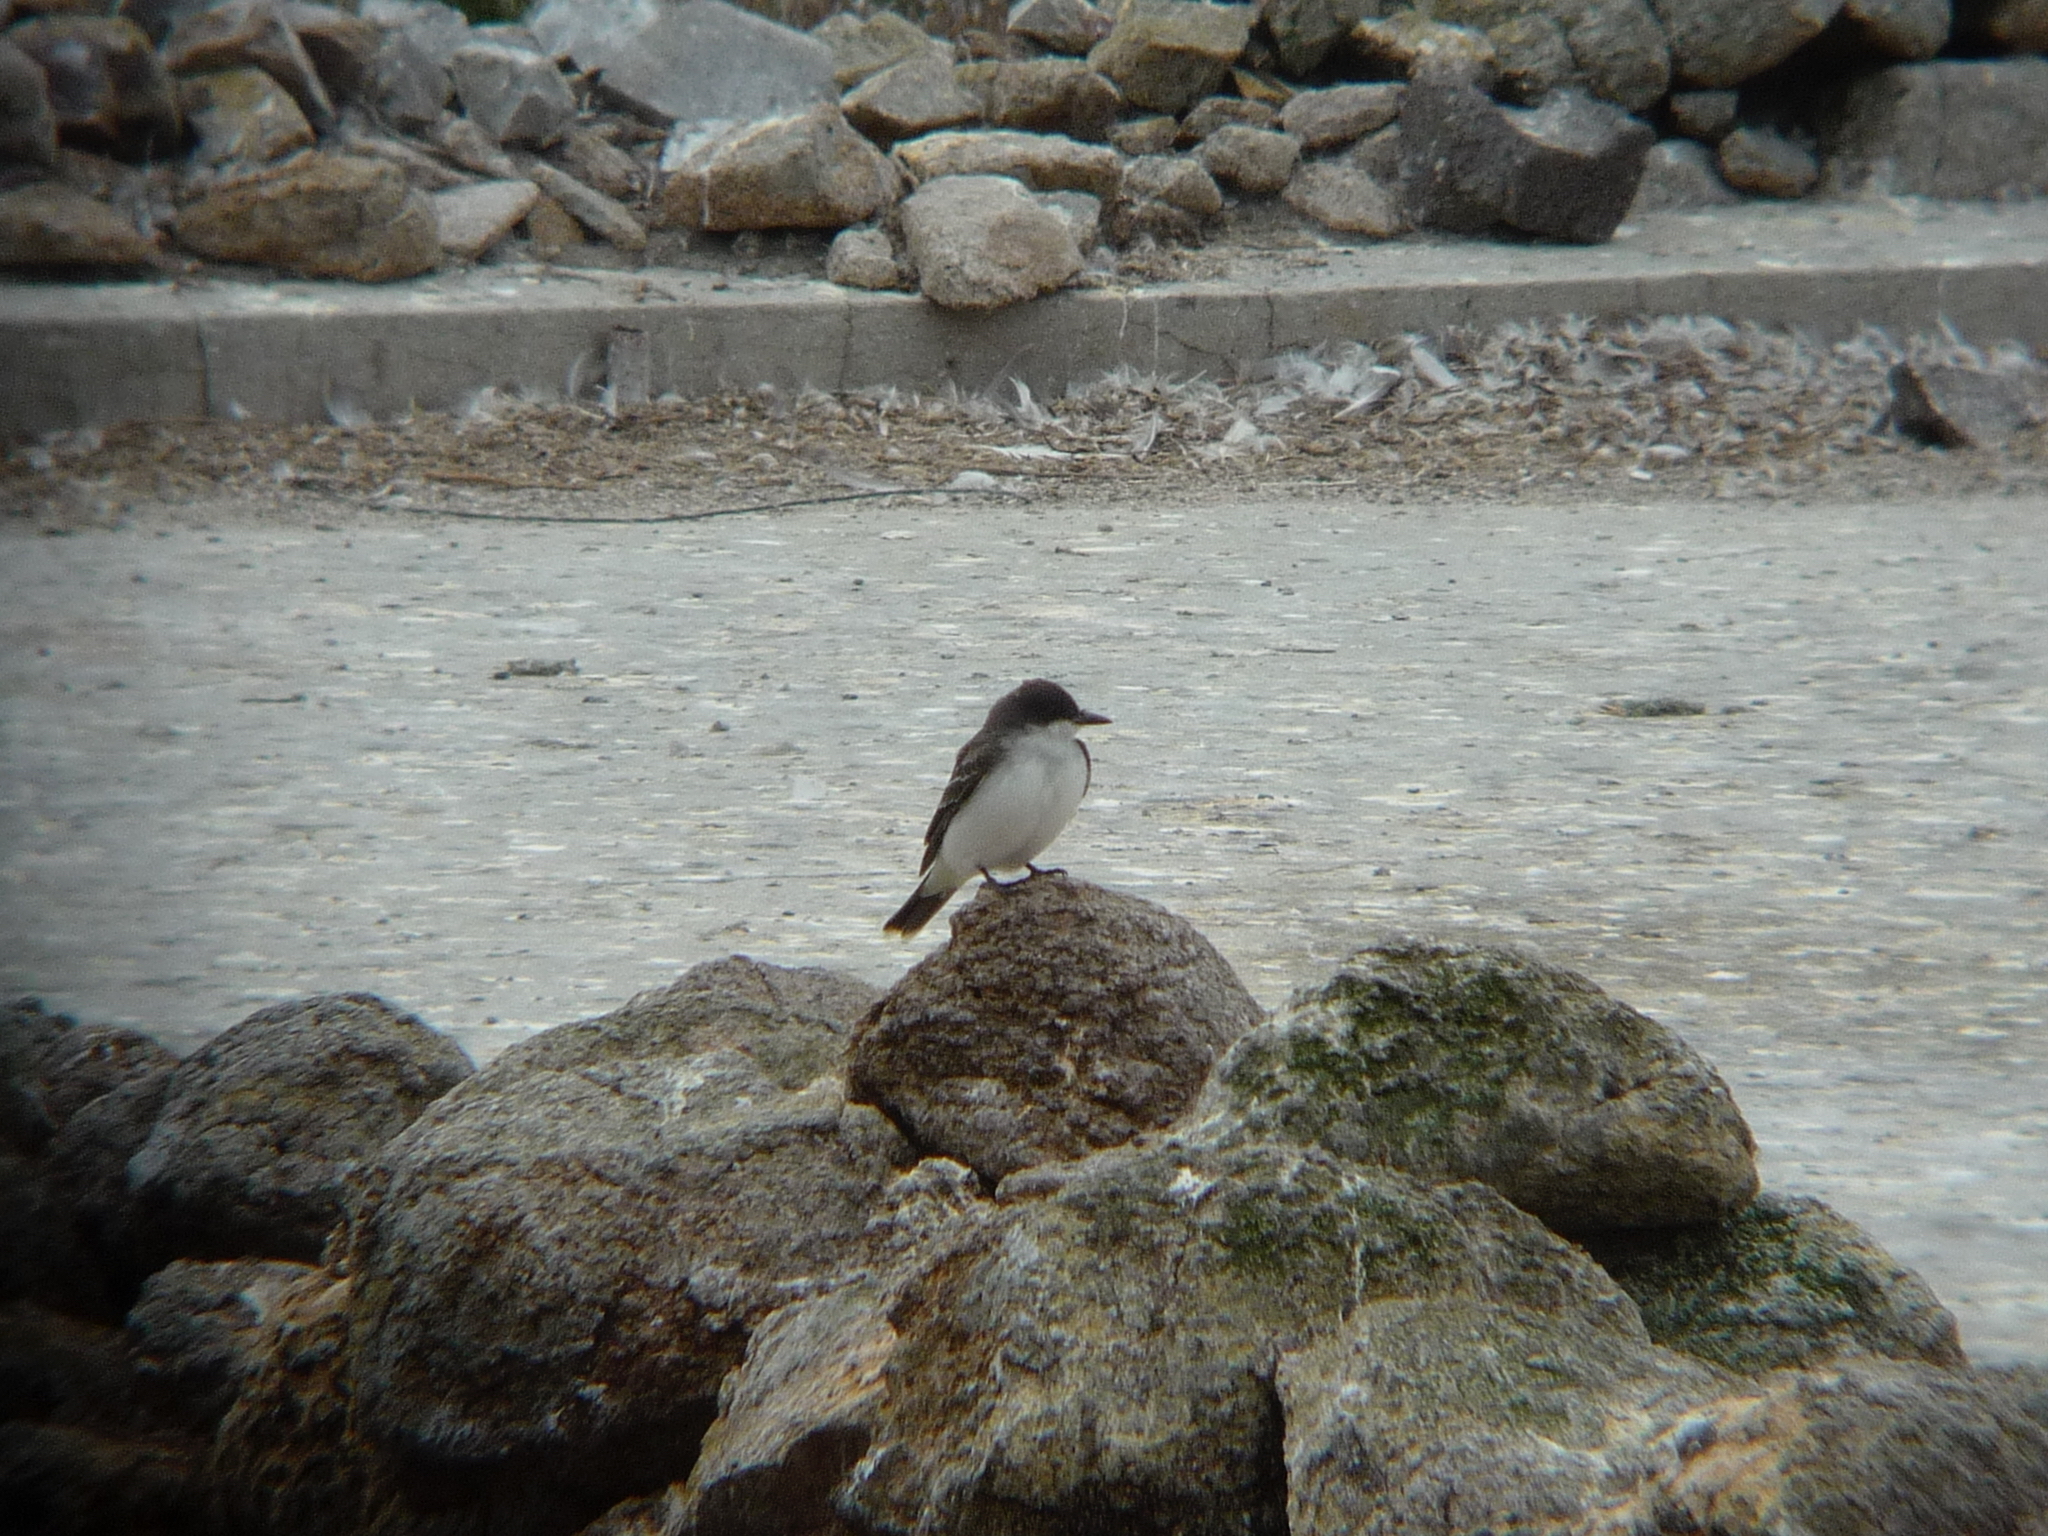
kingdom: Animalia
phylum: Chordata
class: Aves
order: Passeriformes
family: Tyrannidae
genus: Tyrannus
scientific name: Tyrannus tyrannus
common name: Eastern kingbird
